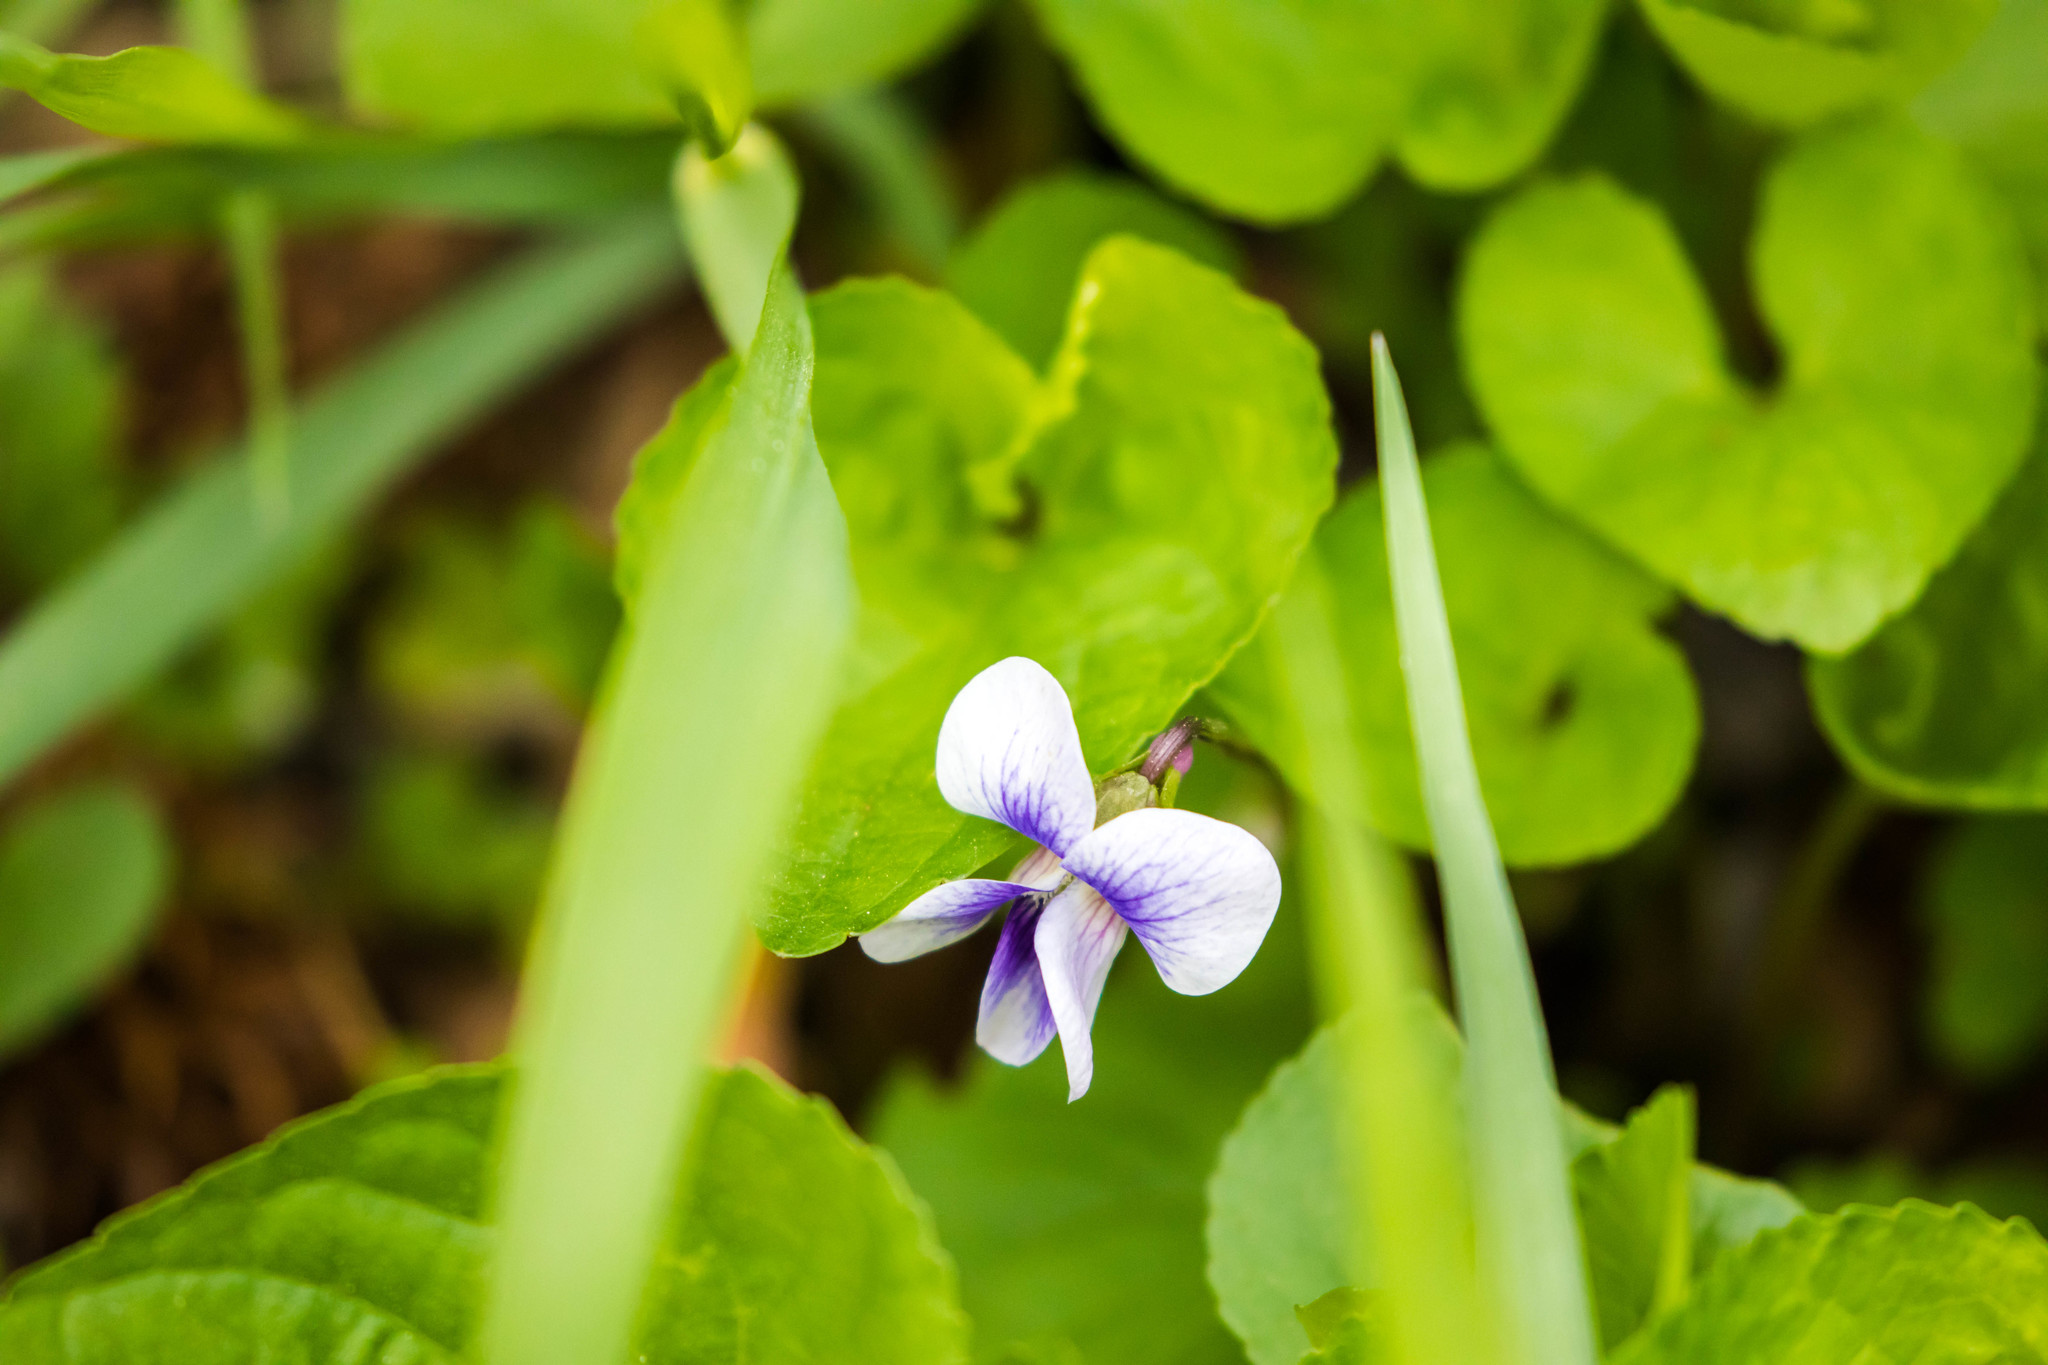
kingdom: Plantae
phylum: Tracheophyta
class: Magnoliopsida
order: Malpighiales
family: Violaceae
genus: Viola
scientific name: Viola sororia
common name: Dooryard violet
